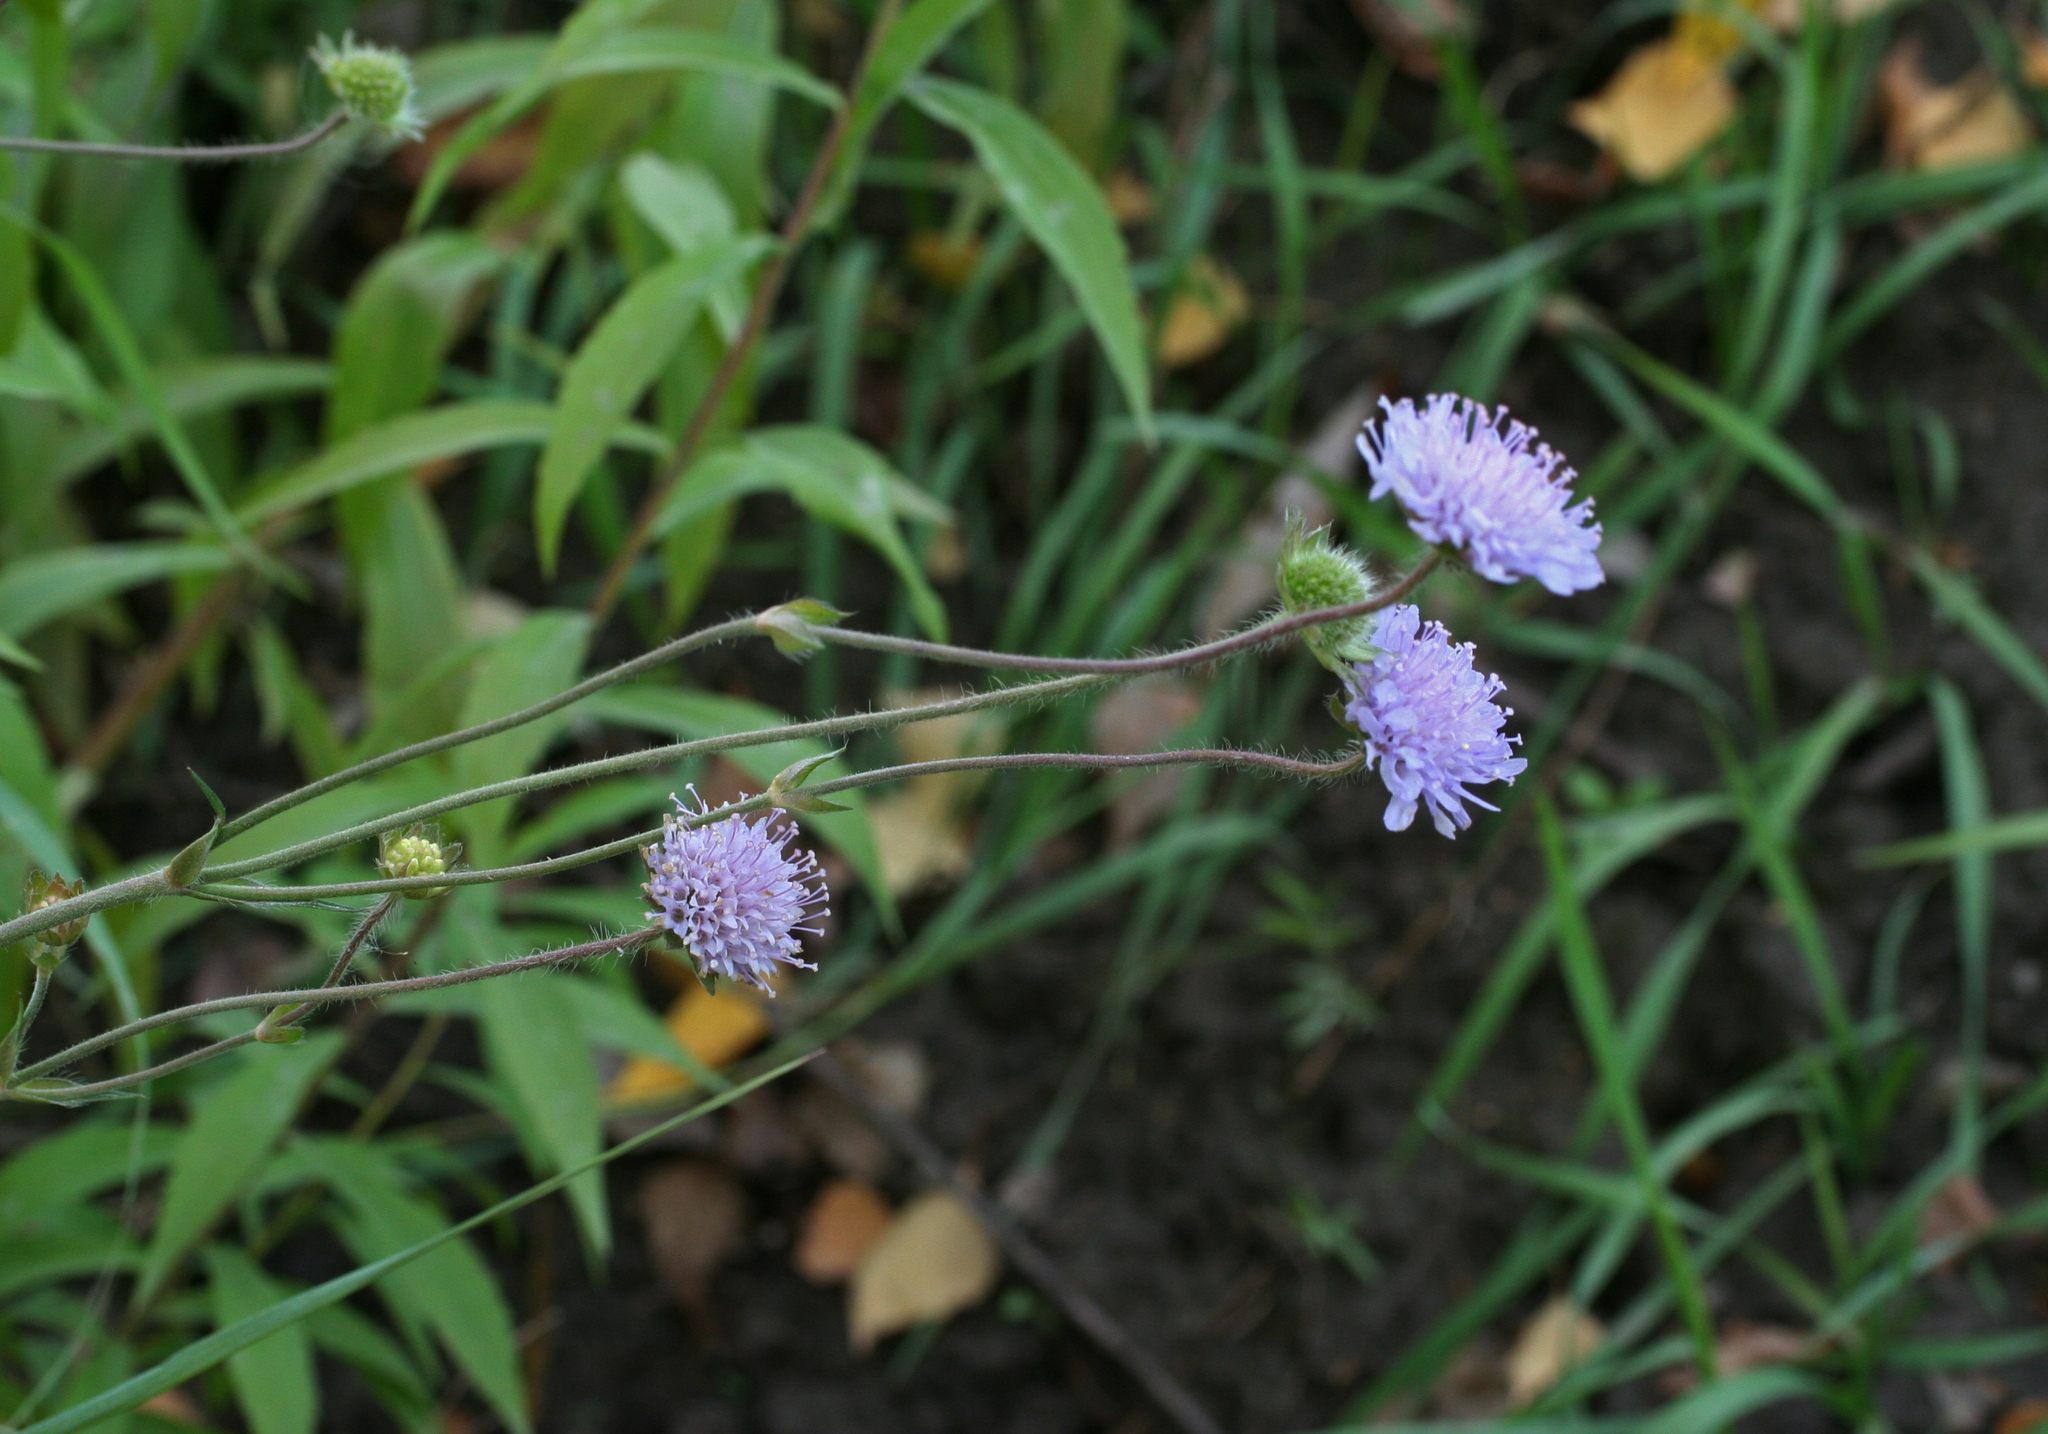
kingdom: Plantae
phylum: Tracheophyta
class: Magnoliopsida
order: Dipsacales
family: Caprifoliaceae
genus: Knautia
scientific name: Knautia arvensis
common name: Field scabiosa
